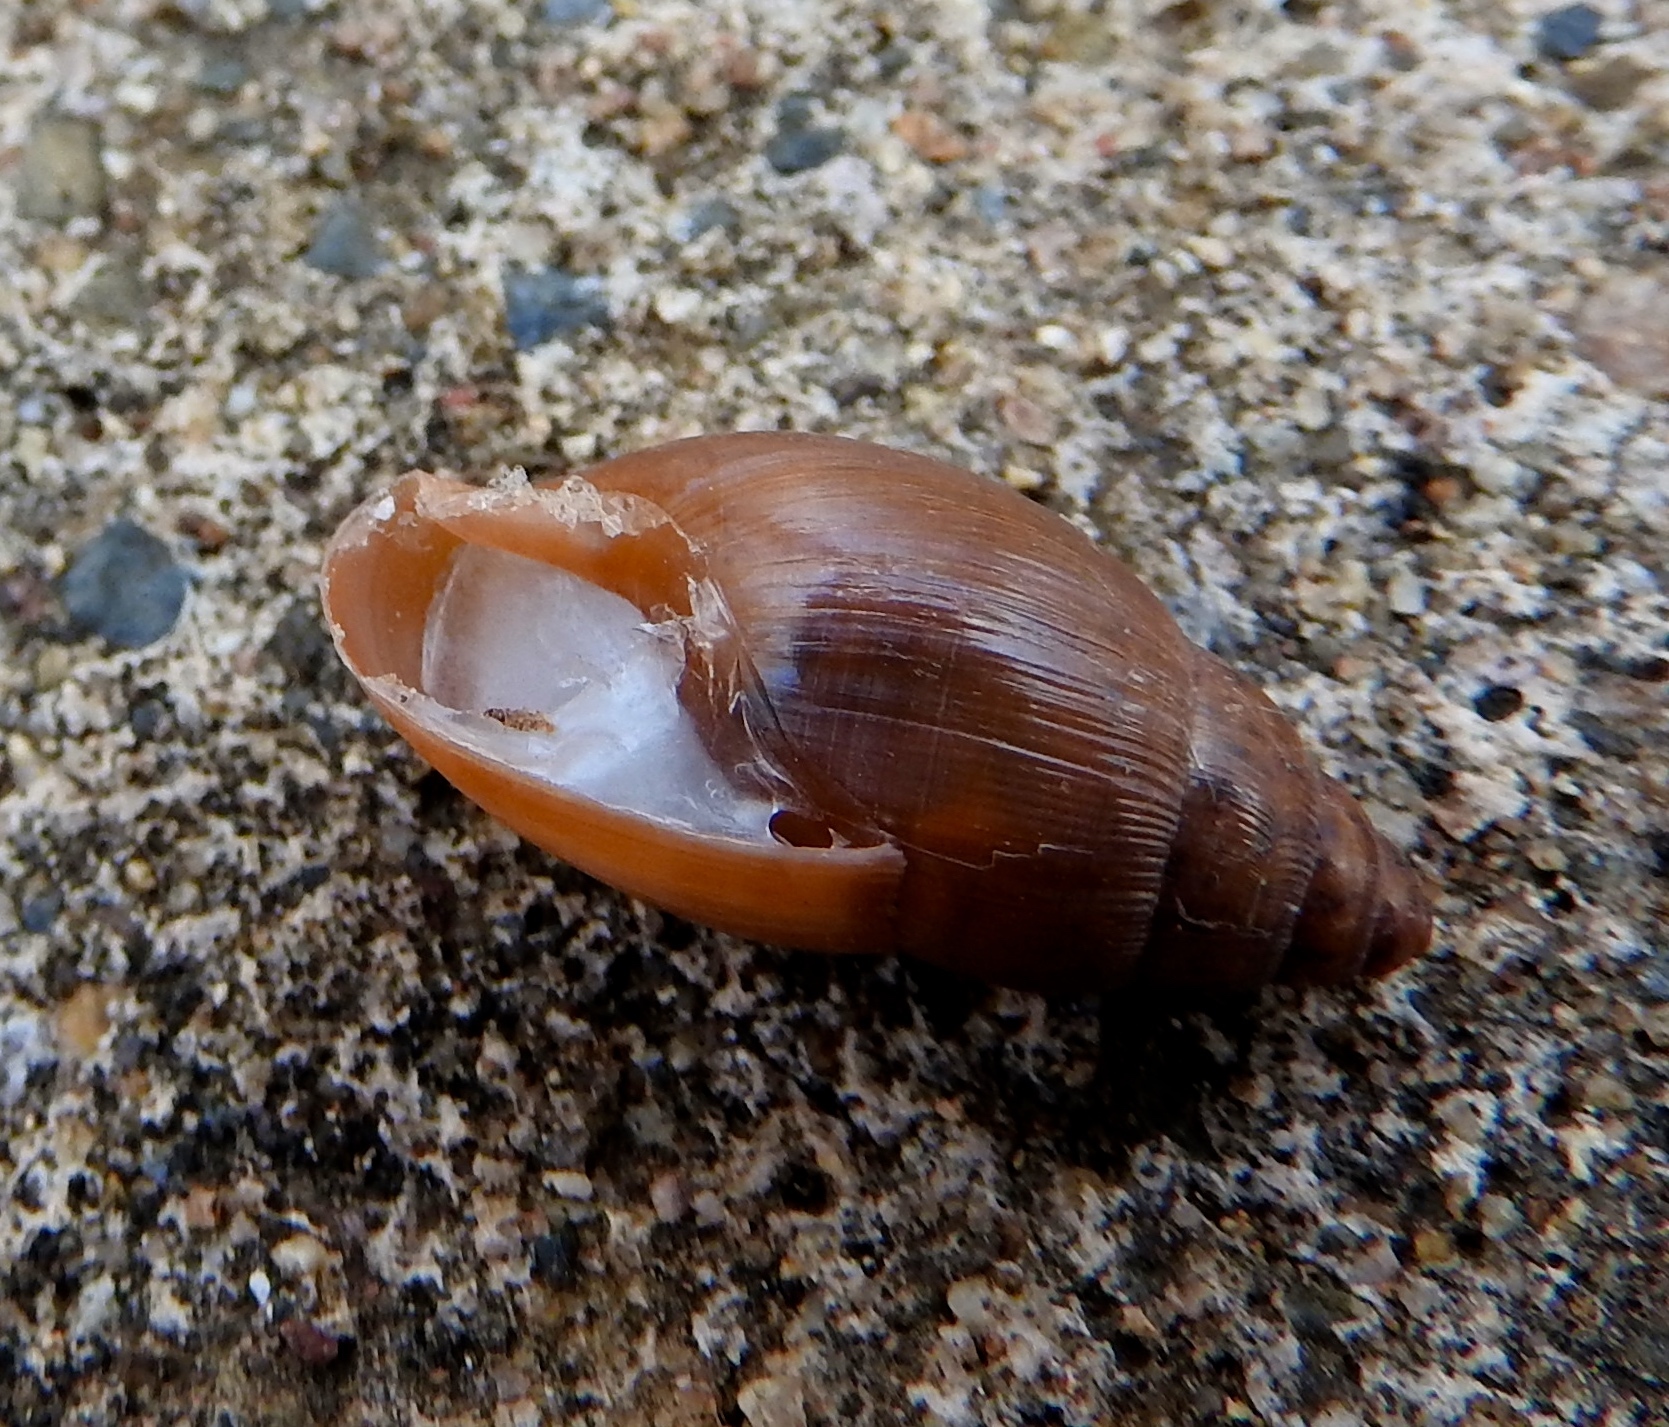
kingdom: Animalia
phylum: Mollusca
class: Gastropoda
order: Stylommatophora
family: Spiraxidae
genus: Euglandina
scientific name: Euglandina
